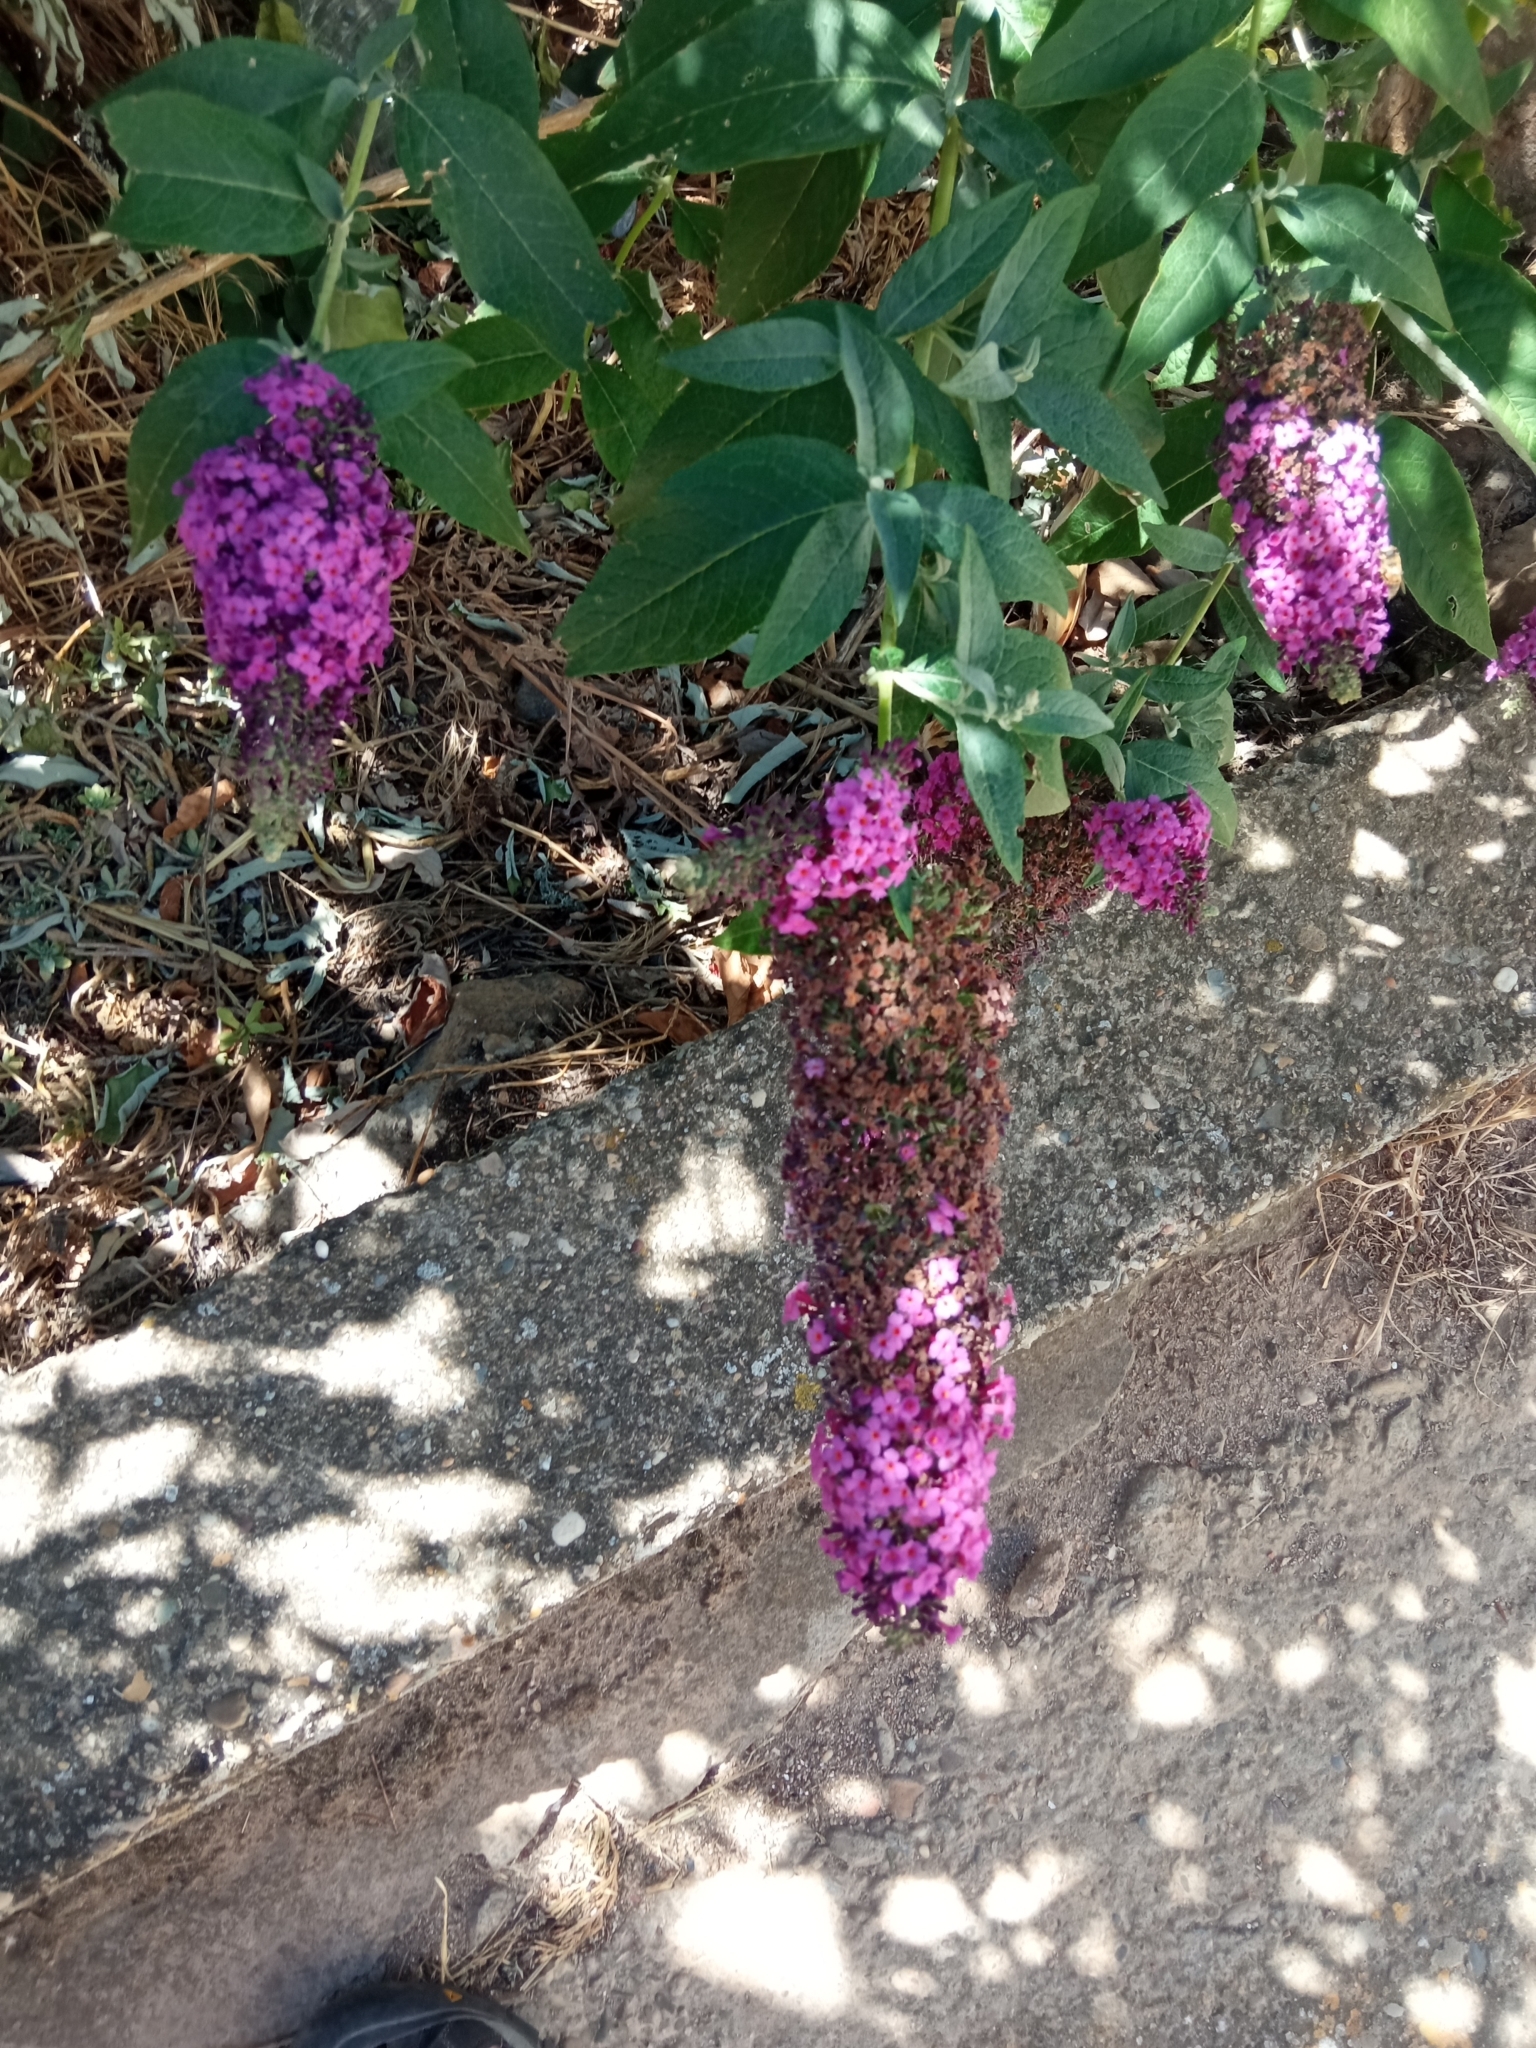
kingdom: Plantae
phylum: Tracheophyta
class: Magnoliopsida
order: Lamiales
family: Scrophulariaceae
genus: Buddleja
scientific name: Buddleja davidii
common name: Butterfly-bush
